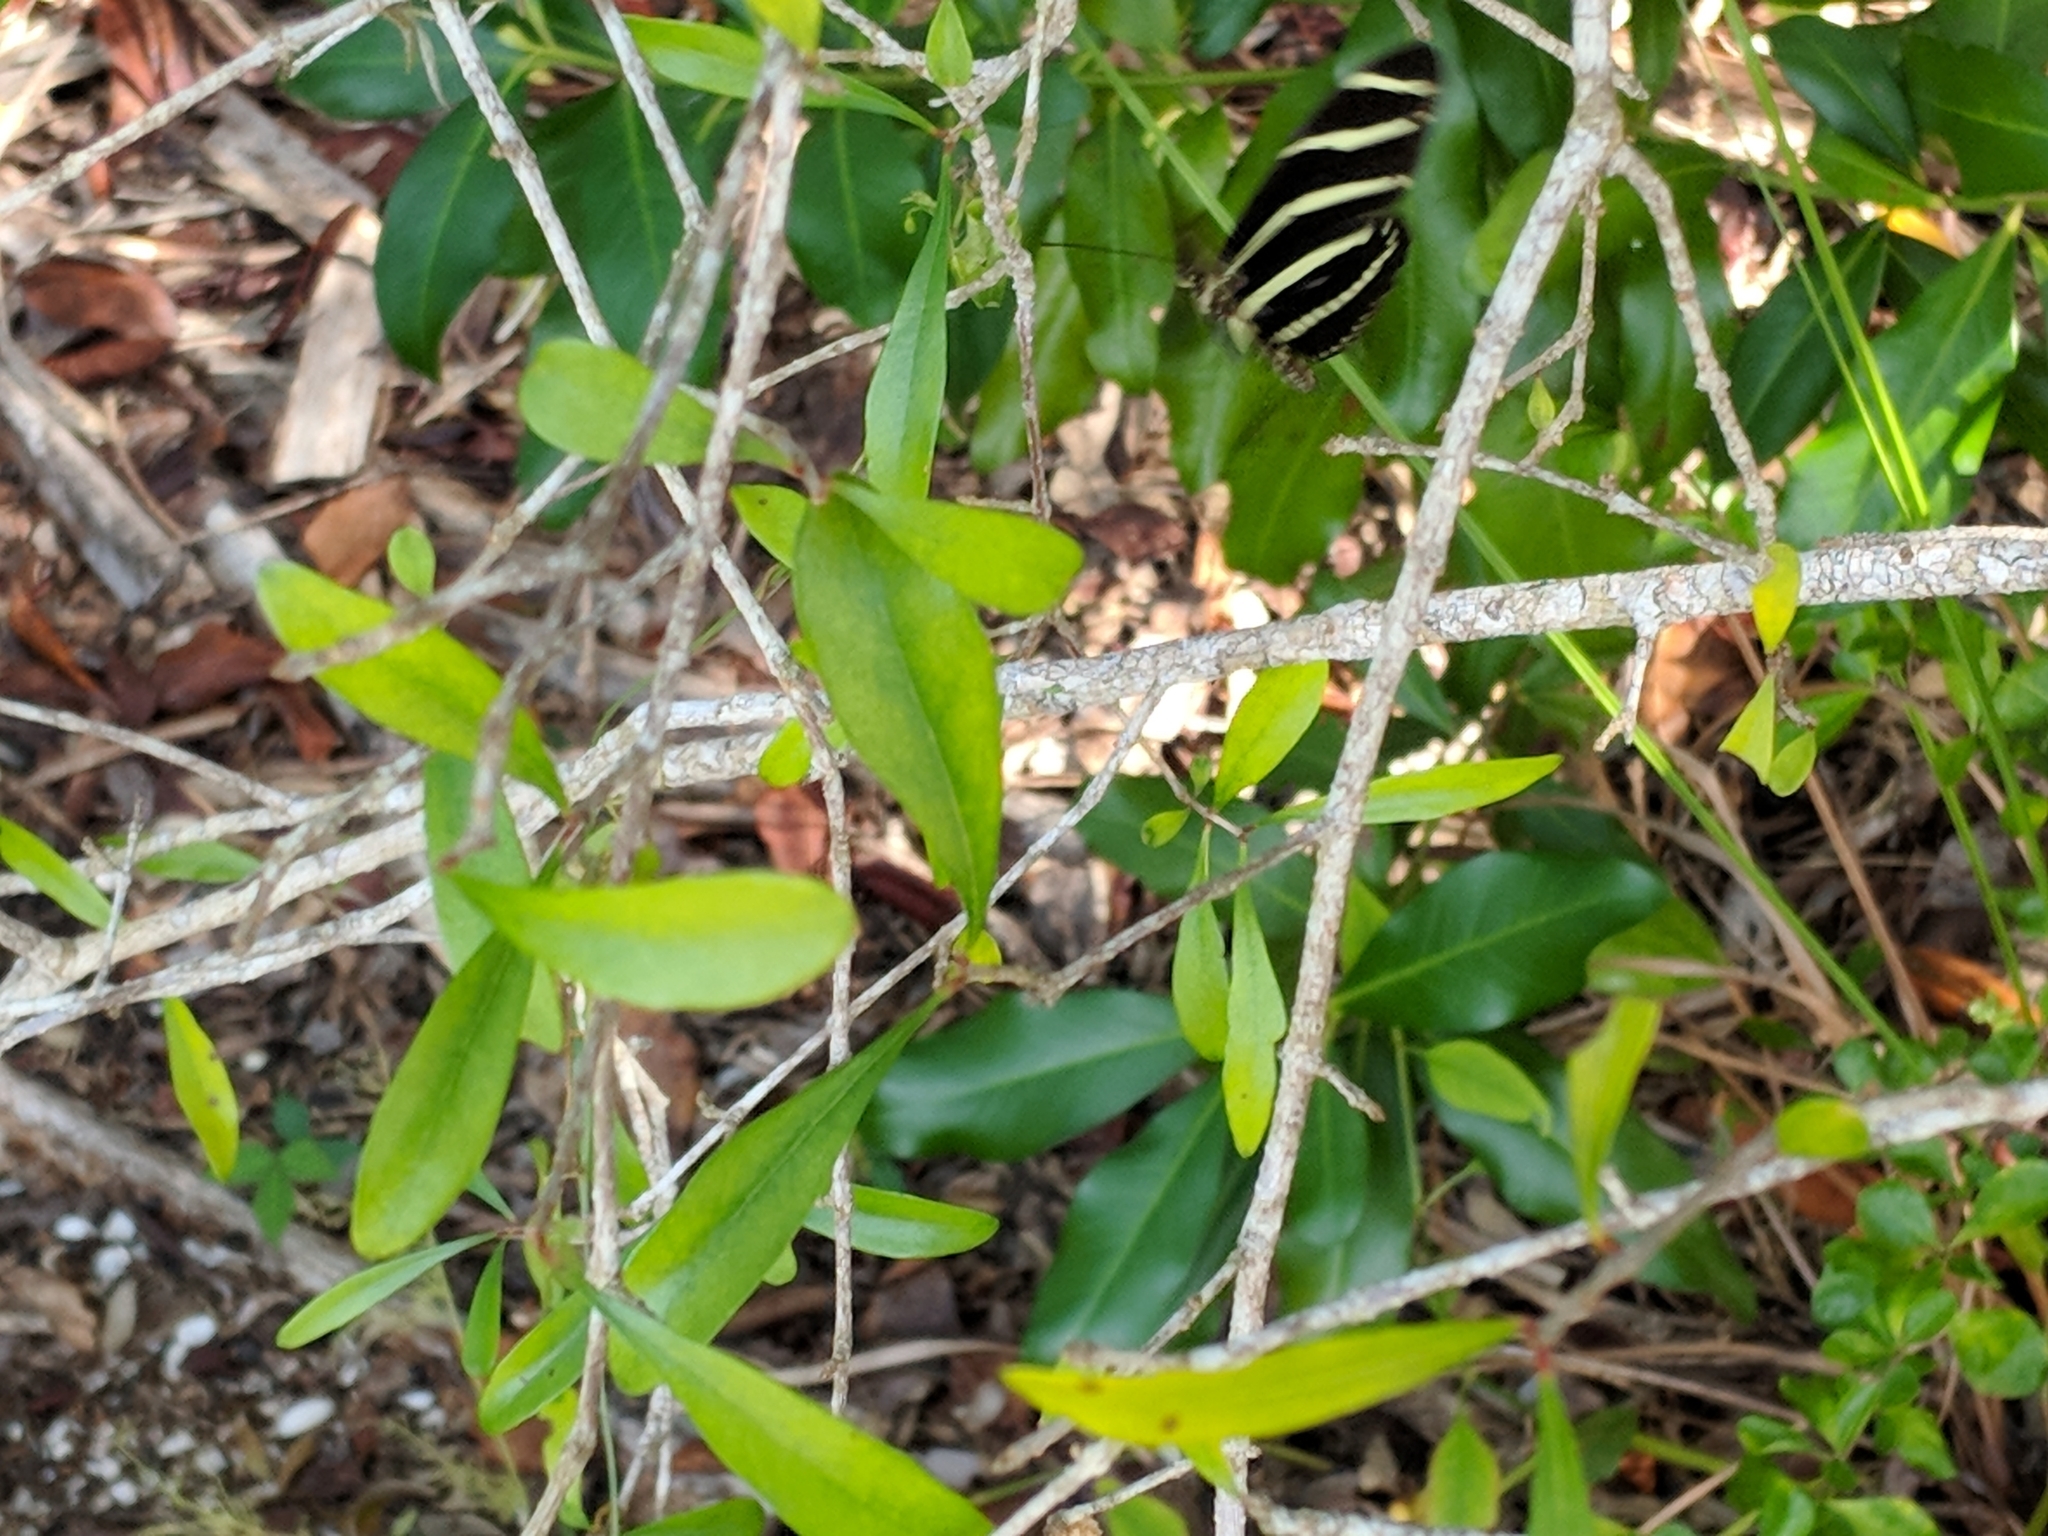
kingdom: Animalia
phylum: Arthropoda
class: Insecta
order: Lepidoptera
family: Nymphalidae
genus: Heliconius
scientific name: Heliconius charithonia
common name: Zebra long wing
